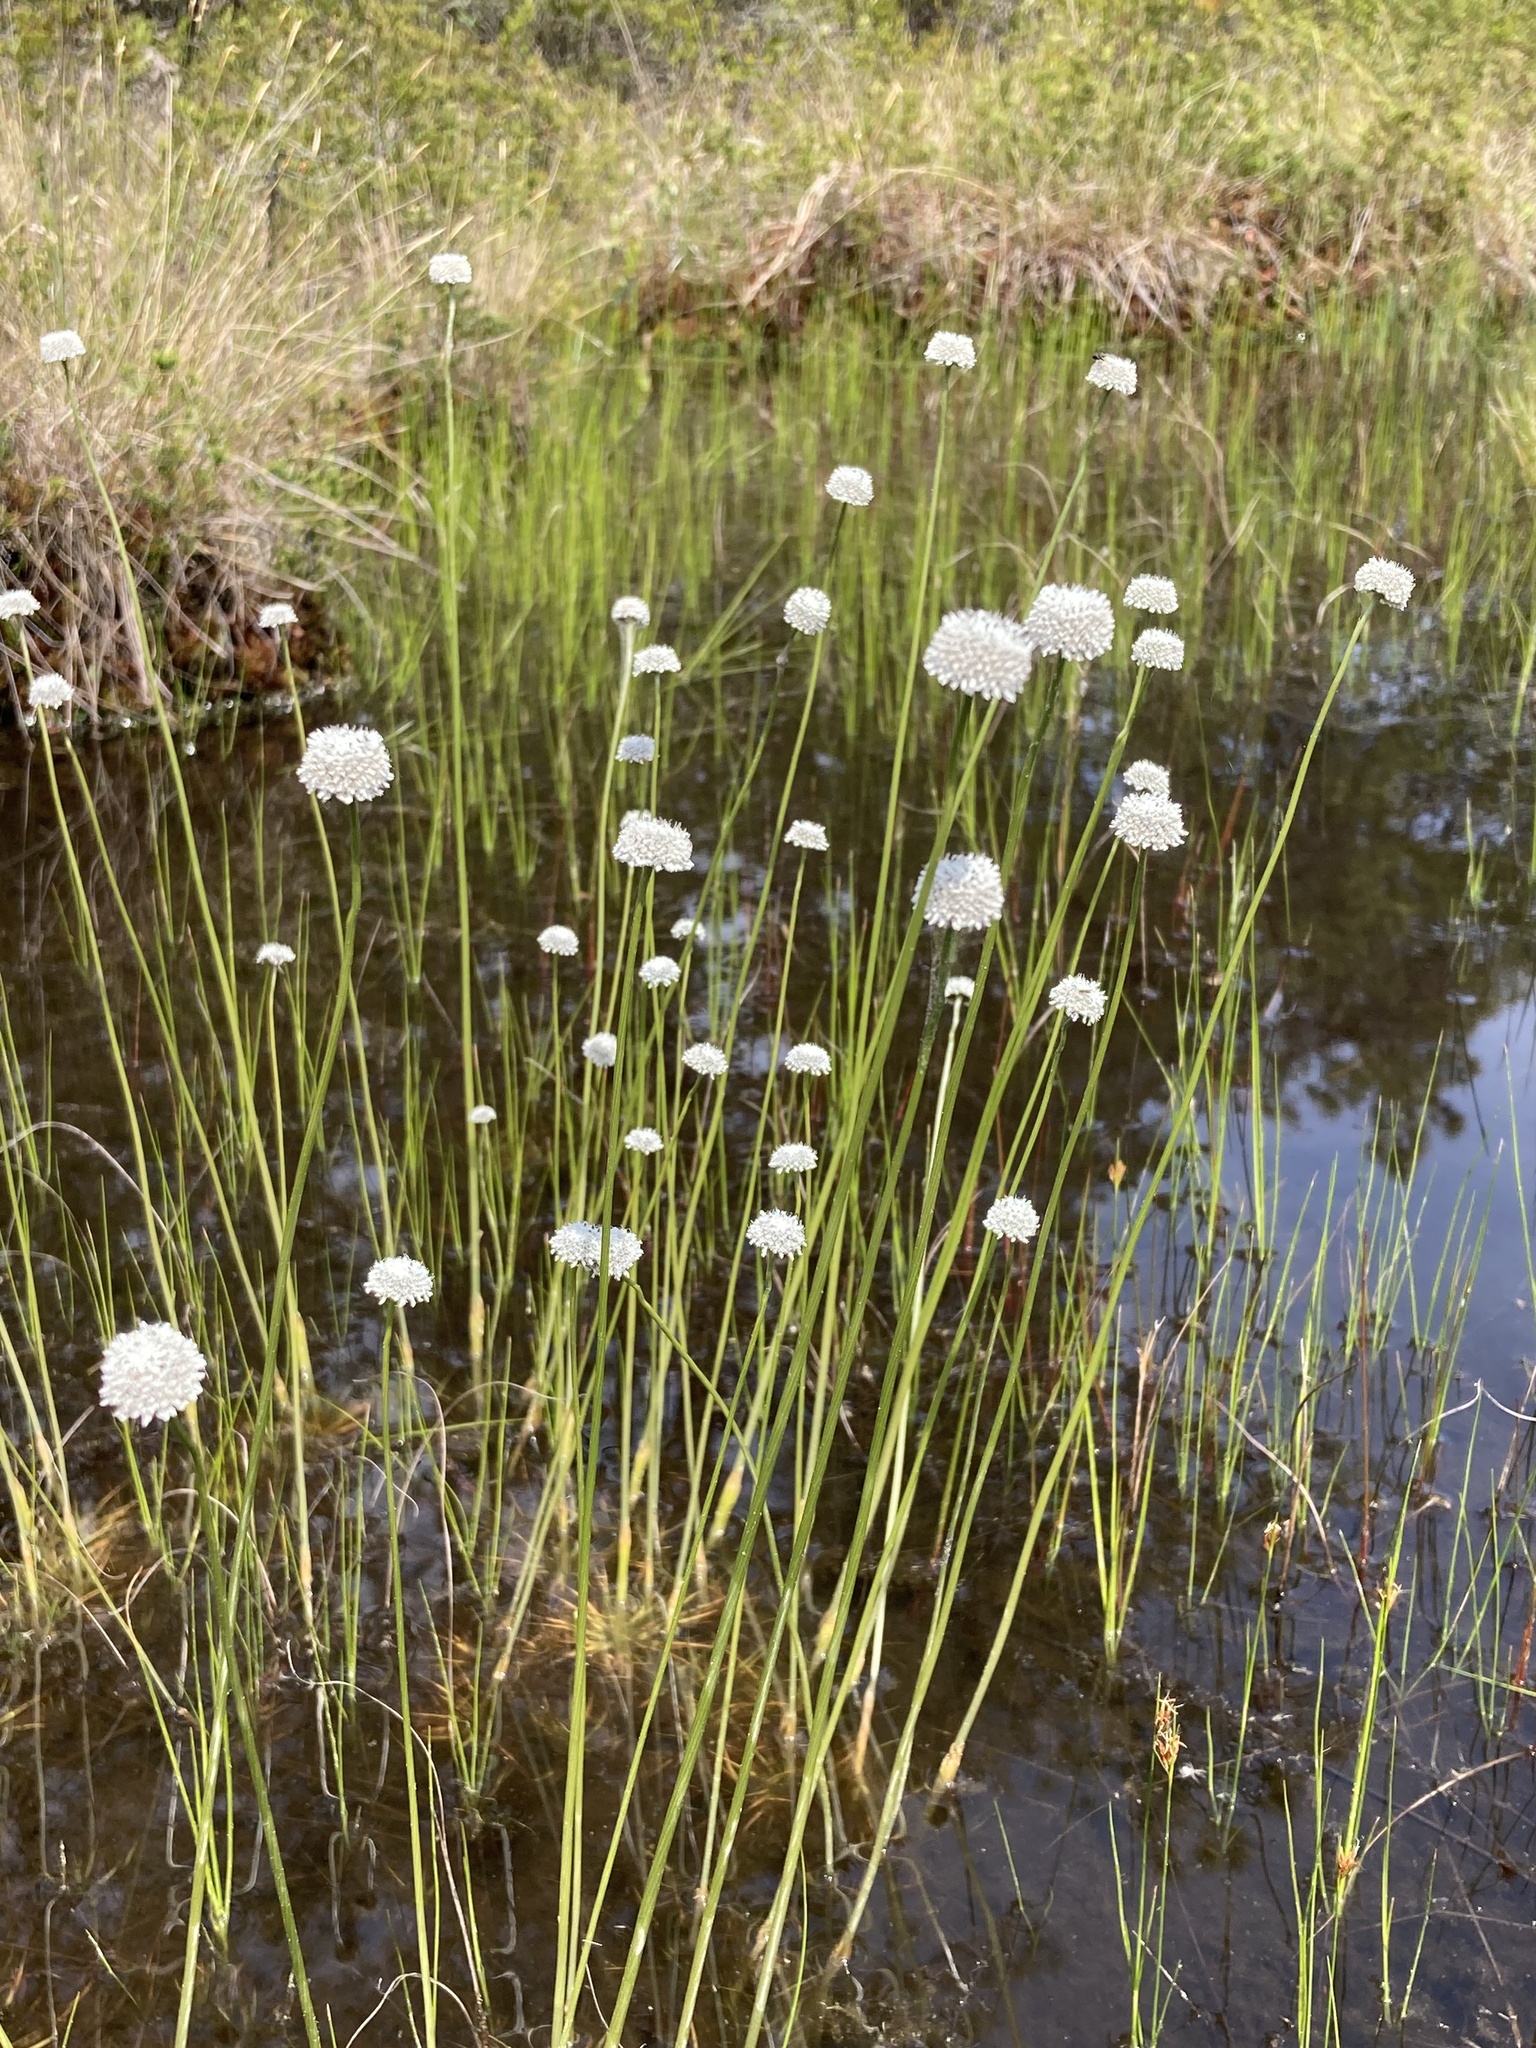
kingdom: Plantae
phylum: Tracheophyta
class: Liliopsida
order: Poales
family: Eriocaulaceae
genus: Eriocaulon
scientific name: Eriocaulon compressum
